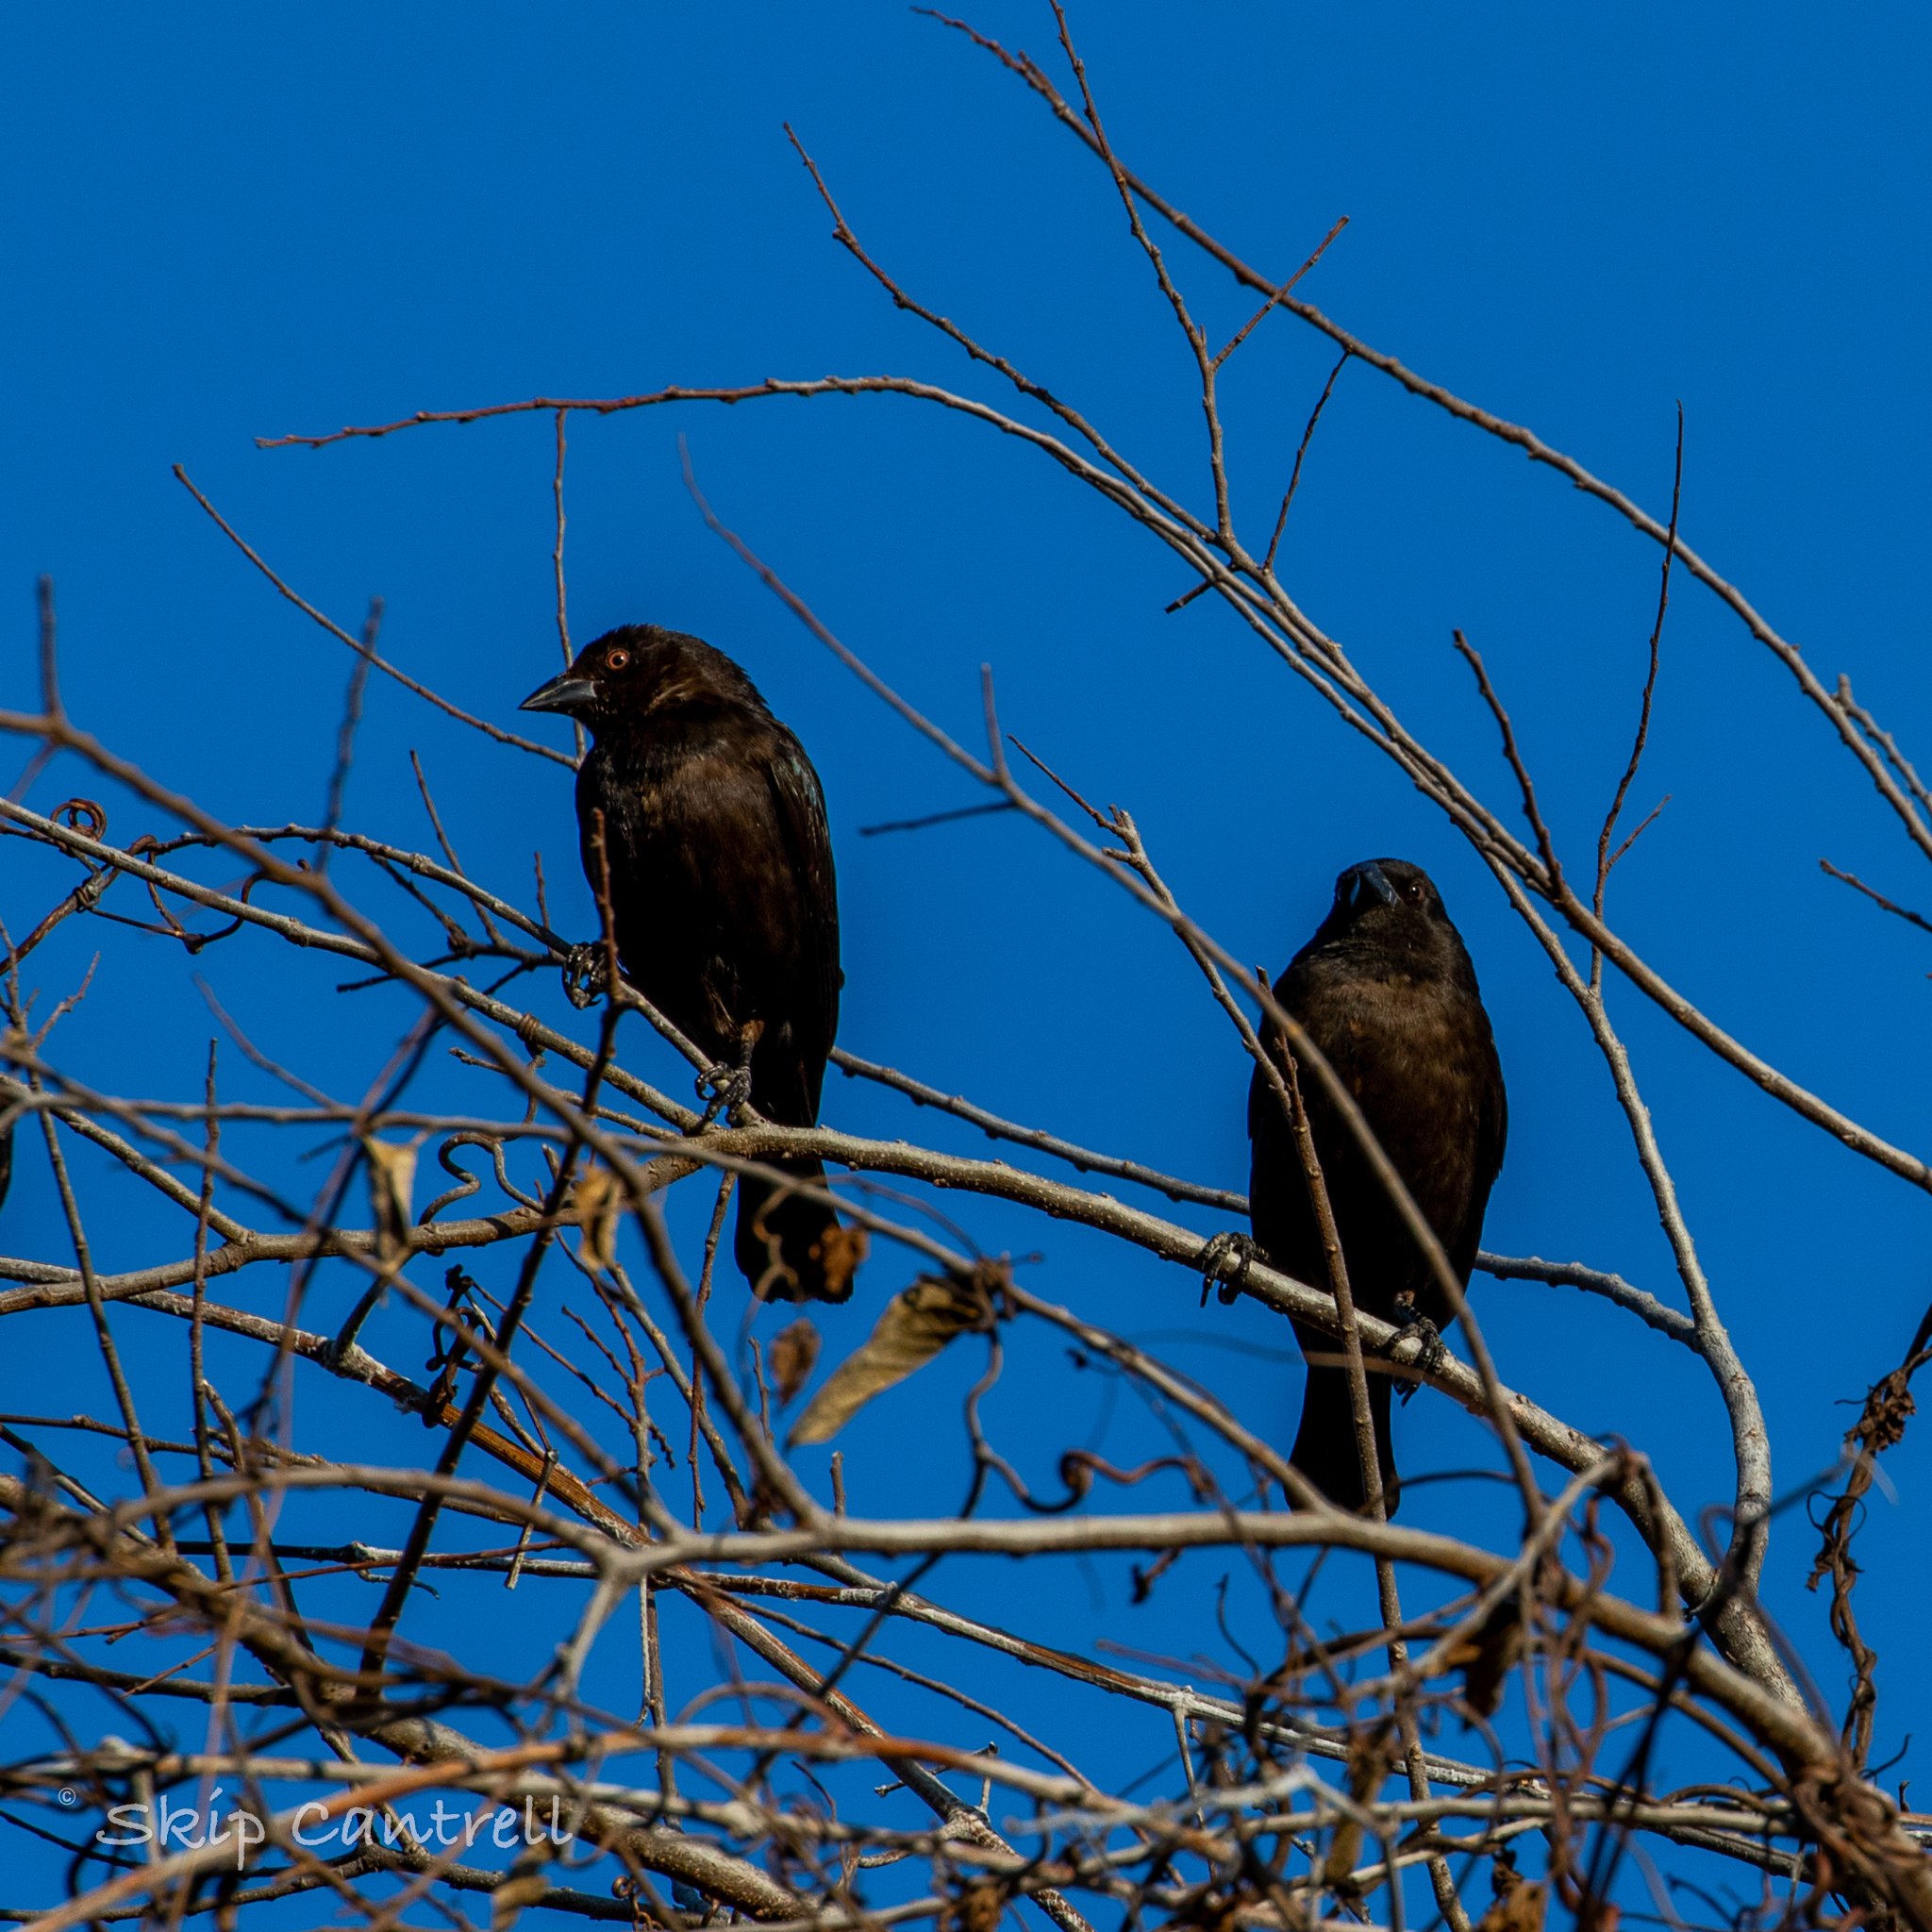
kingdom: Animalia
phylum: Chordata
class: Aves
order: Passeriformes
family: Icteridae
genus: Molothrus
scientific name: Molothrus aeneus
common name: Bronzed cowbird
